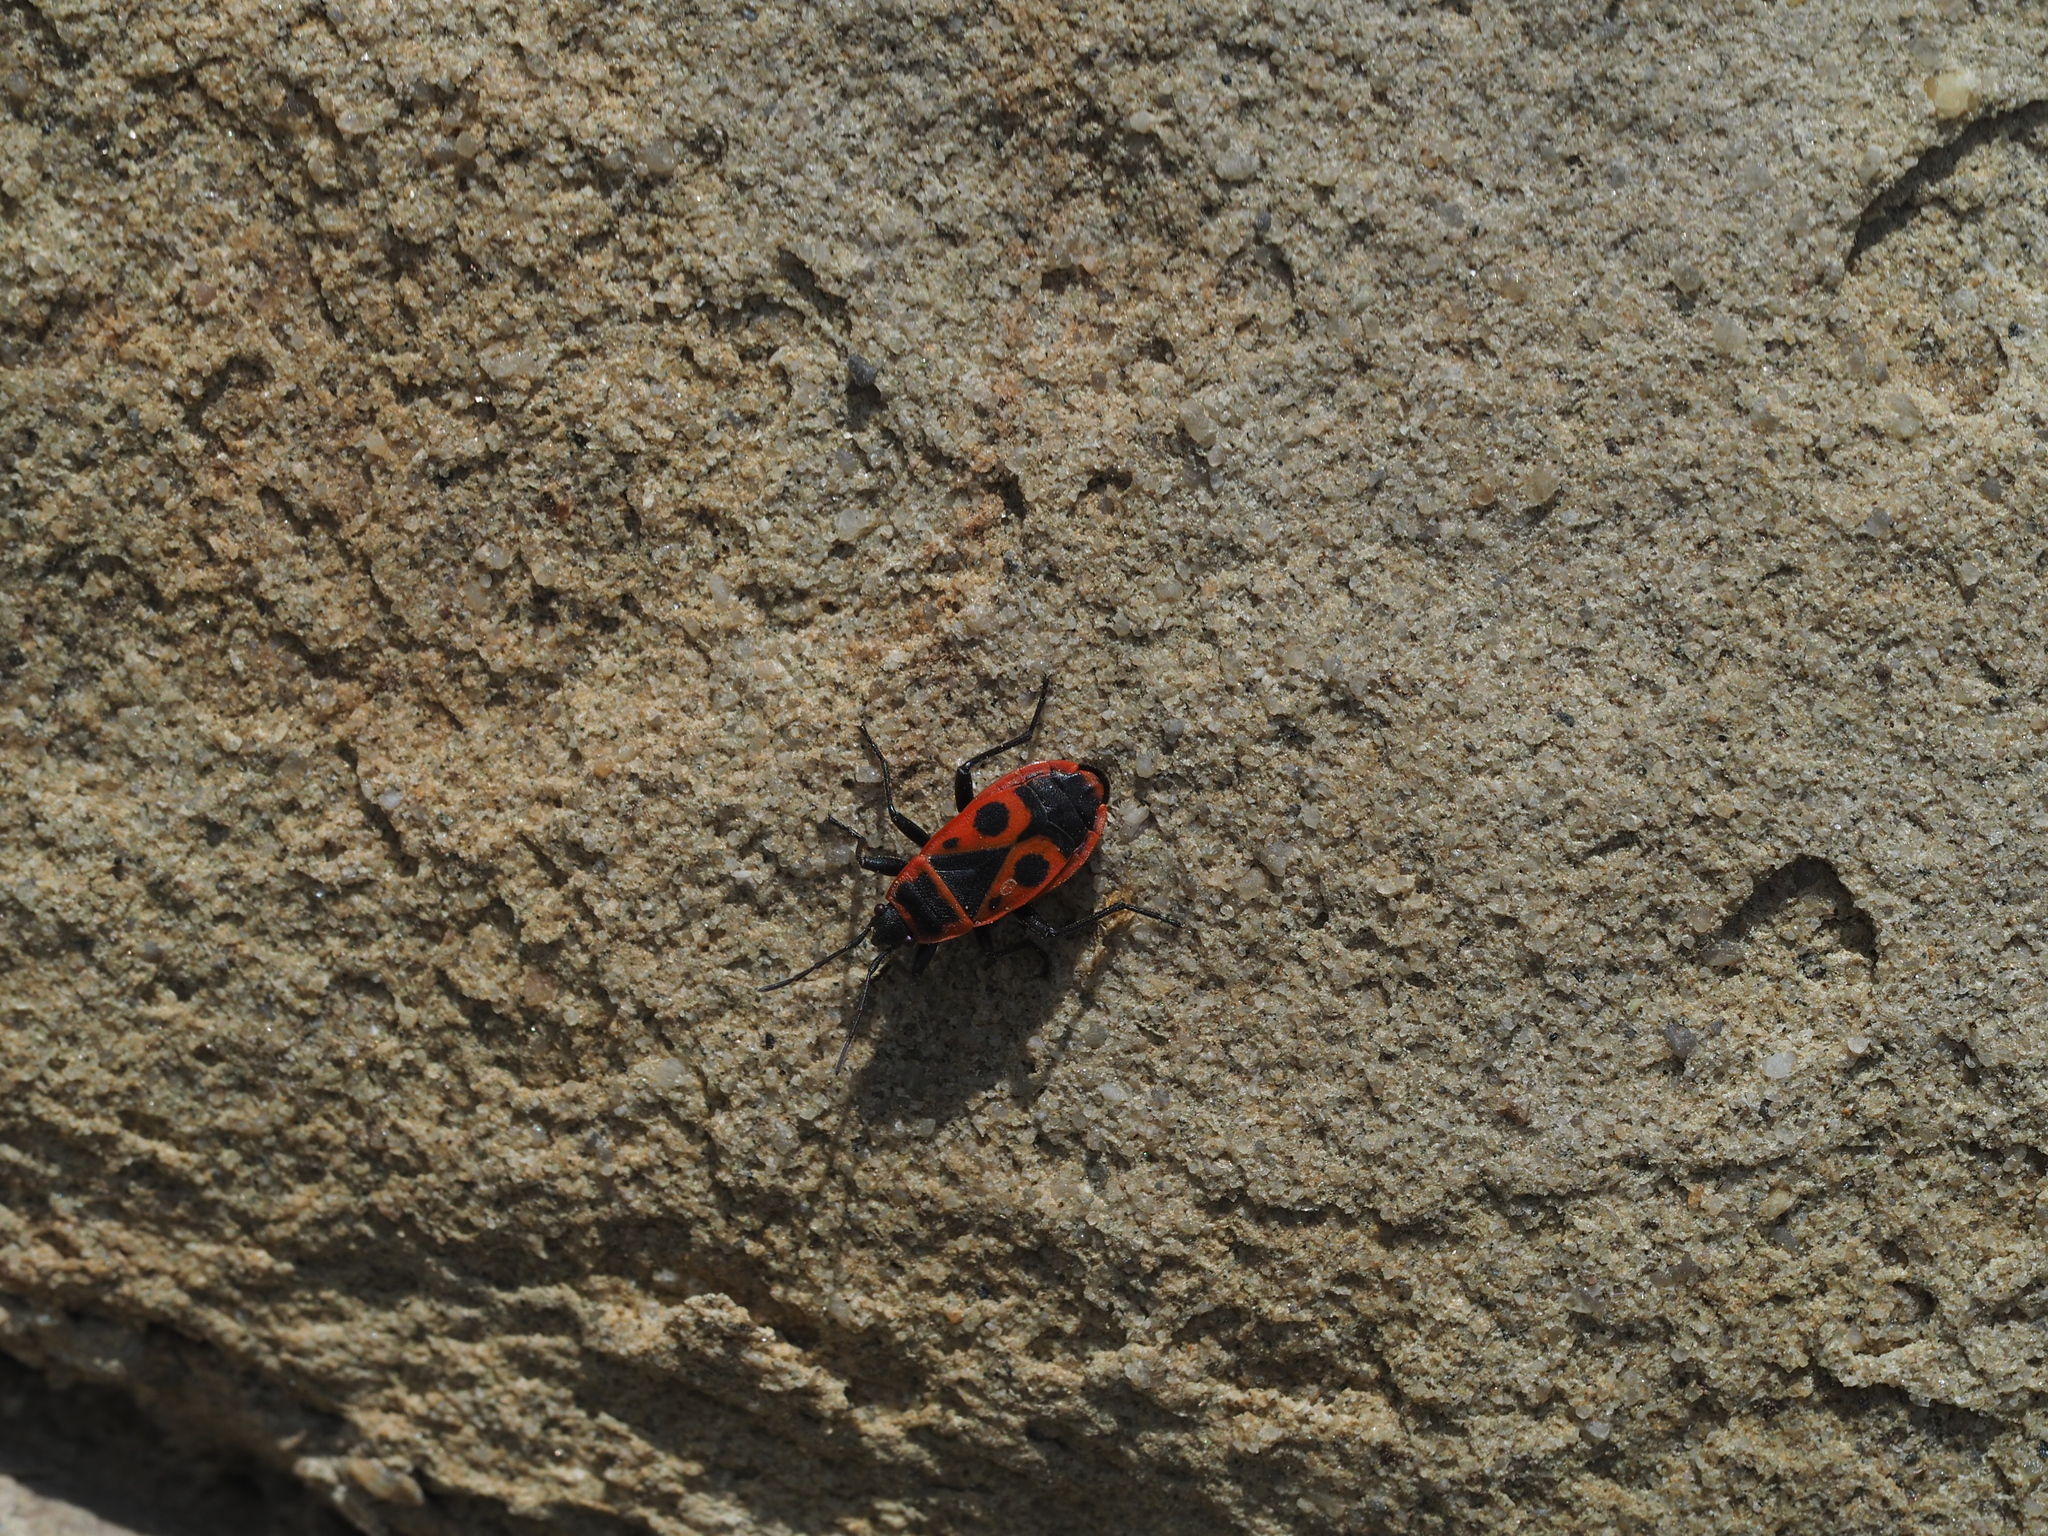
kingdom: Animalia
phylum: Arthropoda
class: Insecta
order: Hemiptera
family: Pyrrhocoridae
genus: Pyrrhocoris
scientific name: Pyrrhocoris apterus
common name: Firebug
